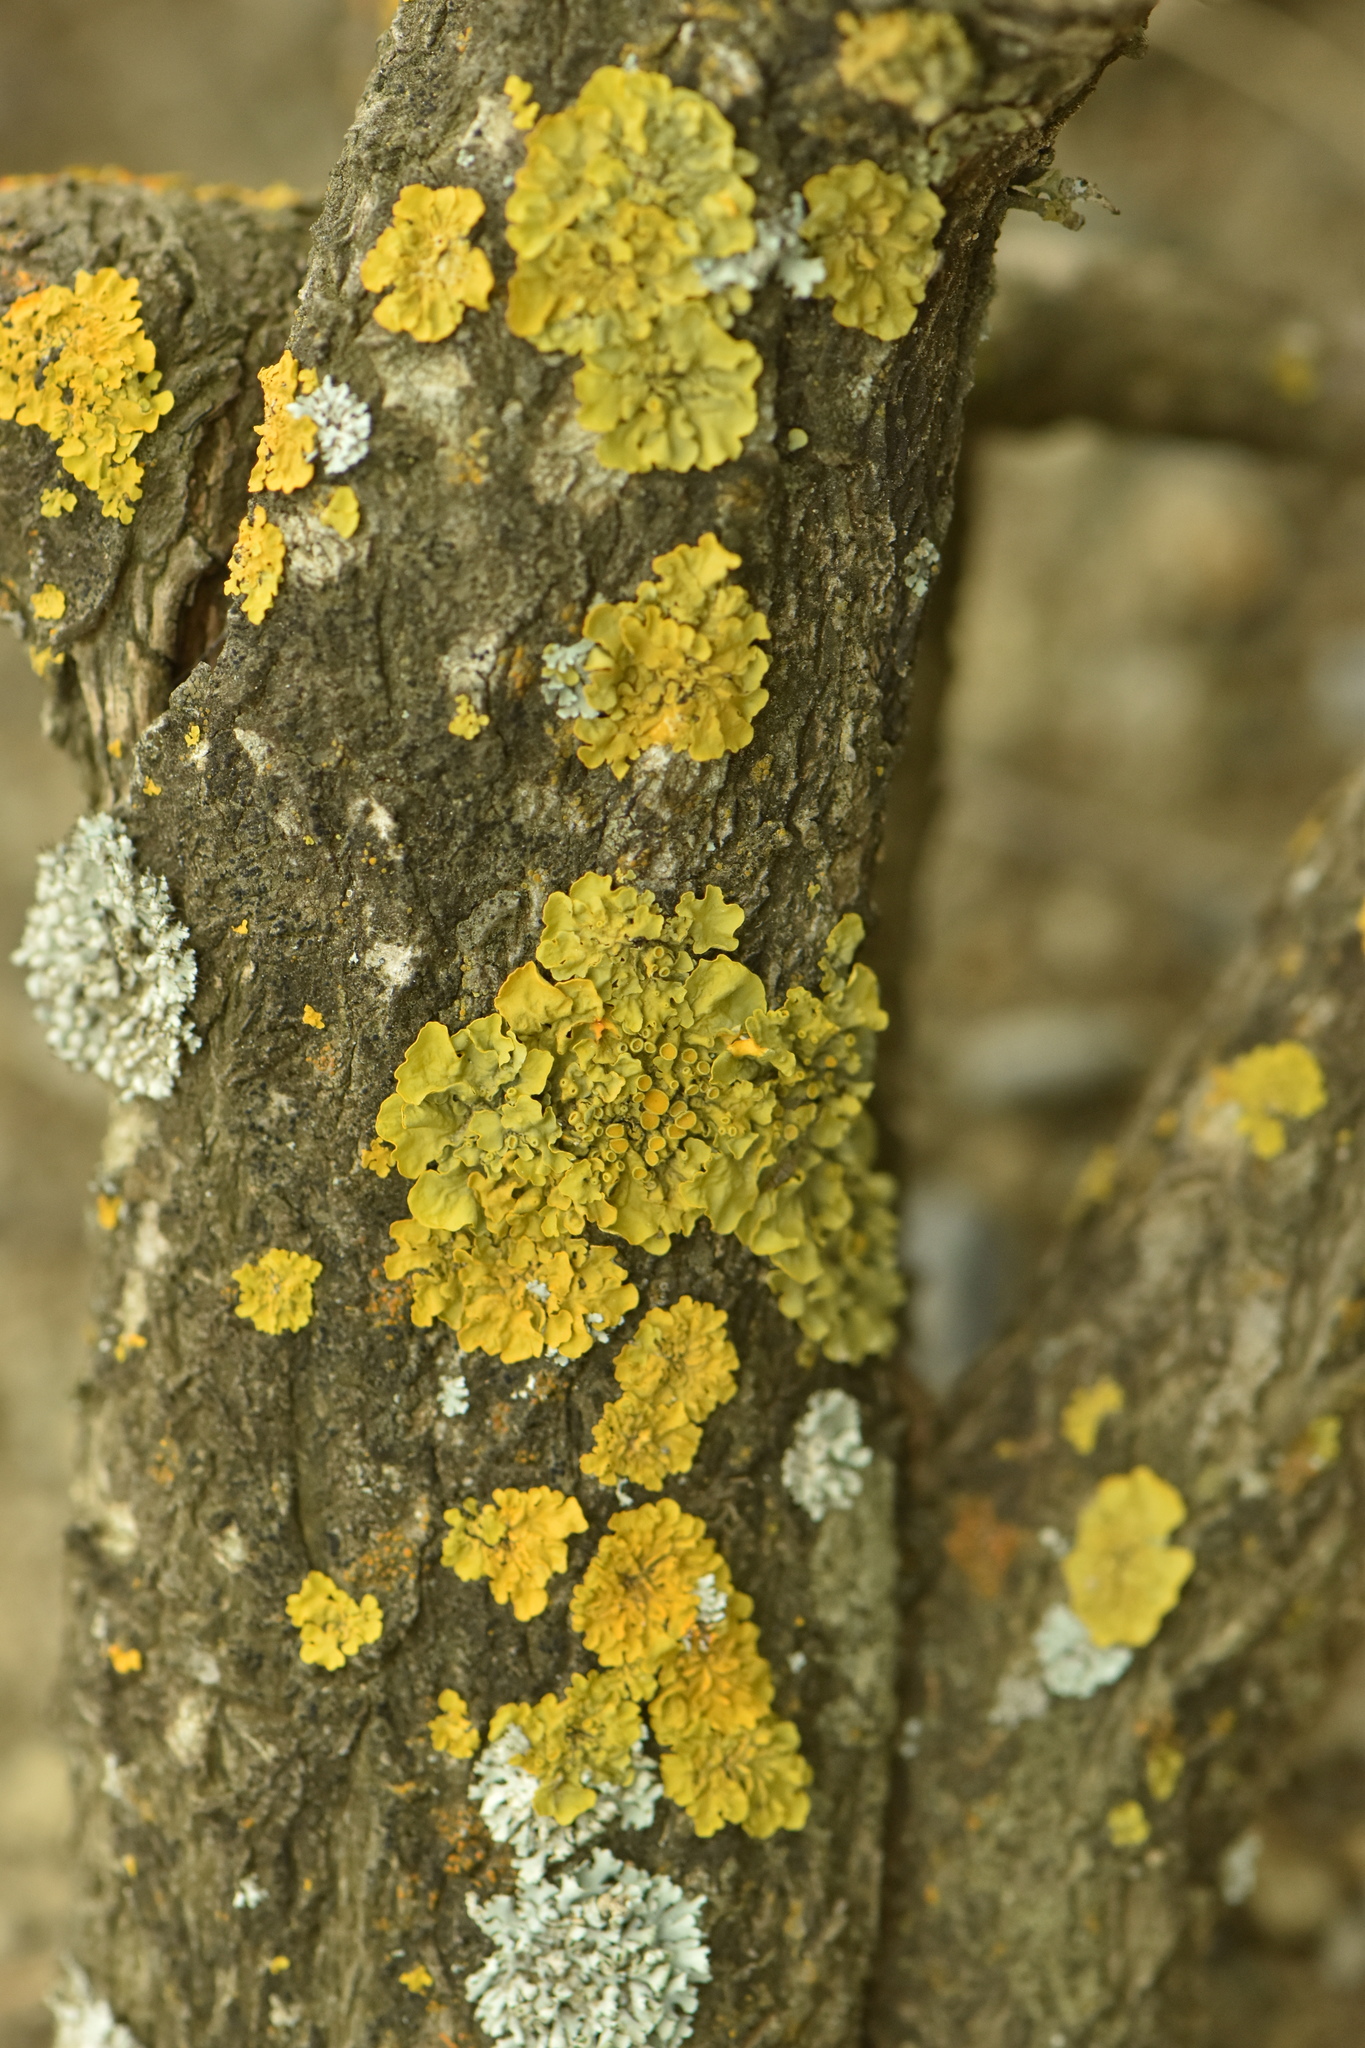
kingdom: Fungi
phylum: Ascomycota
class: Lecanoromycetes
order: Teloschistales
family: Teloschistaceae
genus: Xanthoria
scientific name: Xanthoria parietina
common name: Common orange lichen
